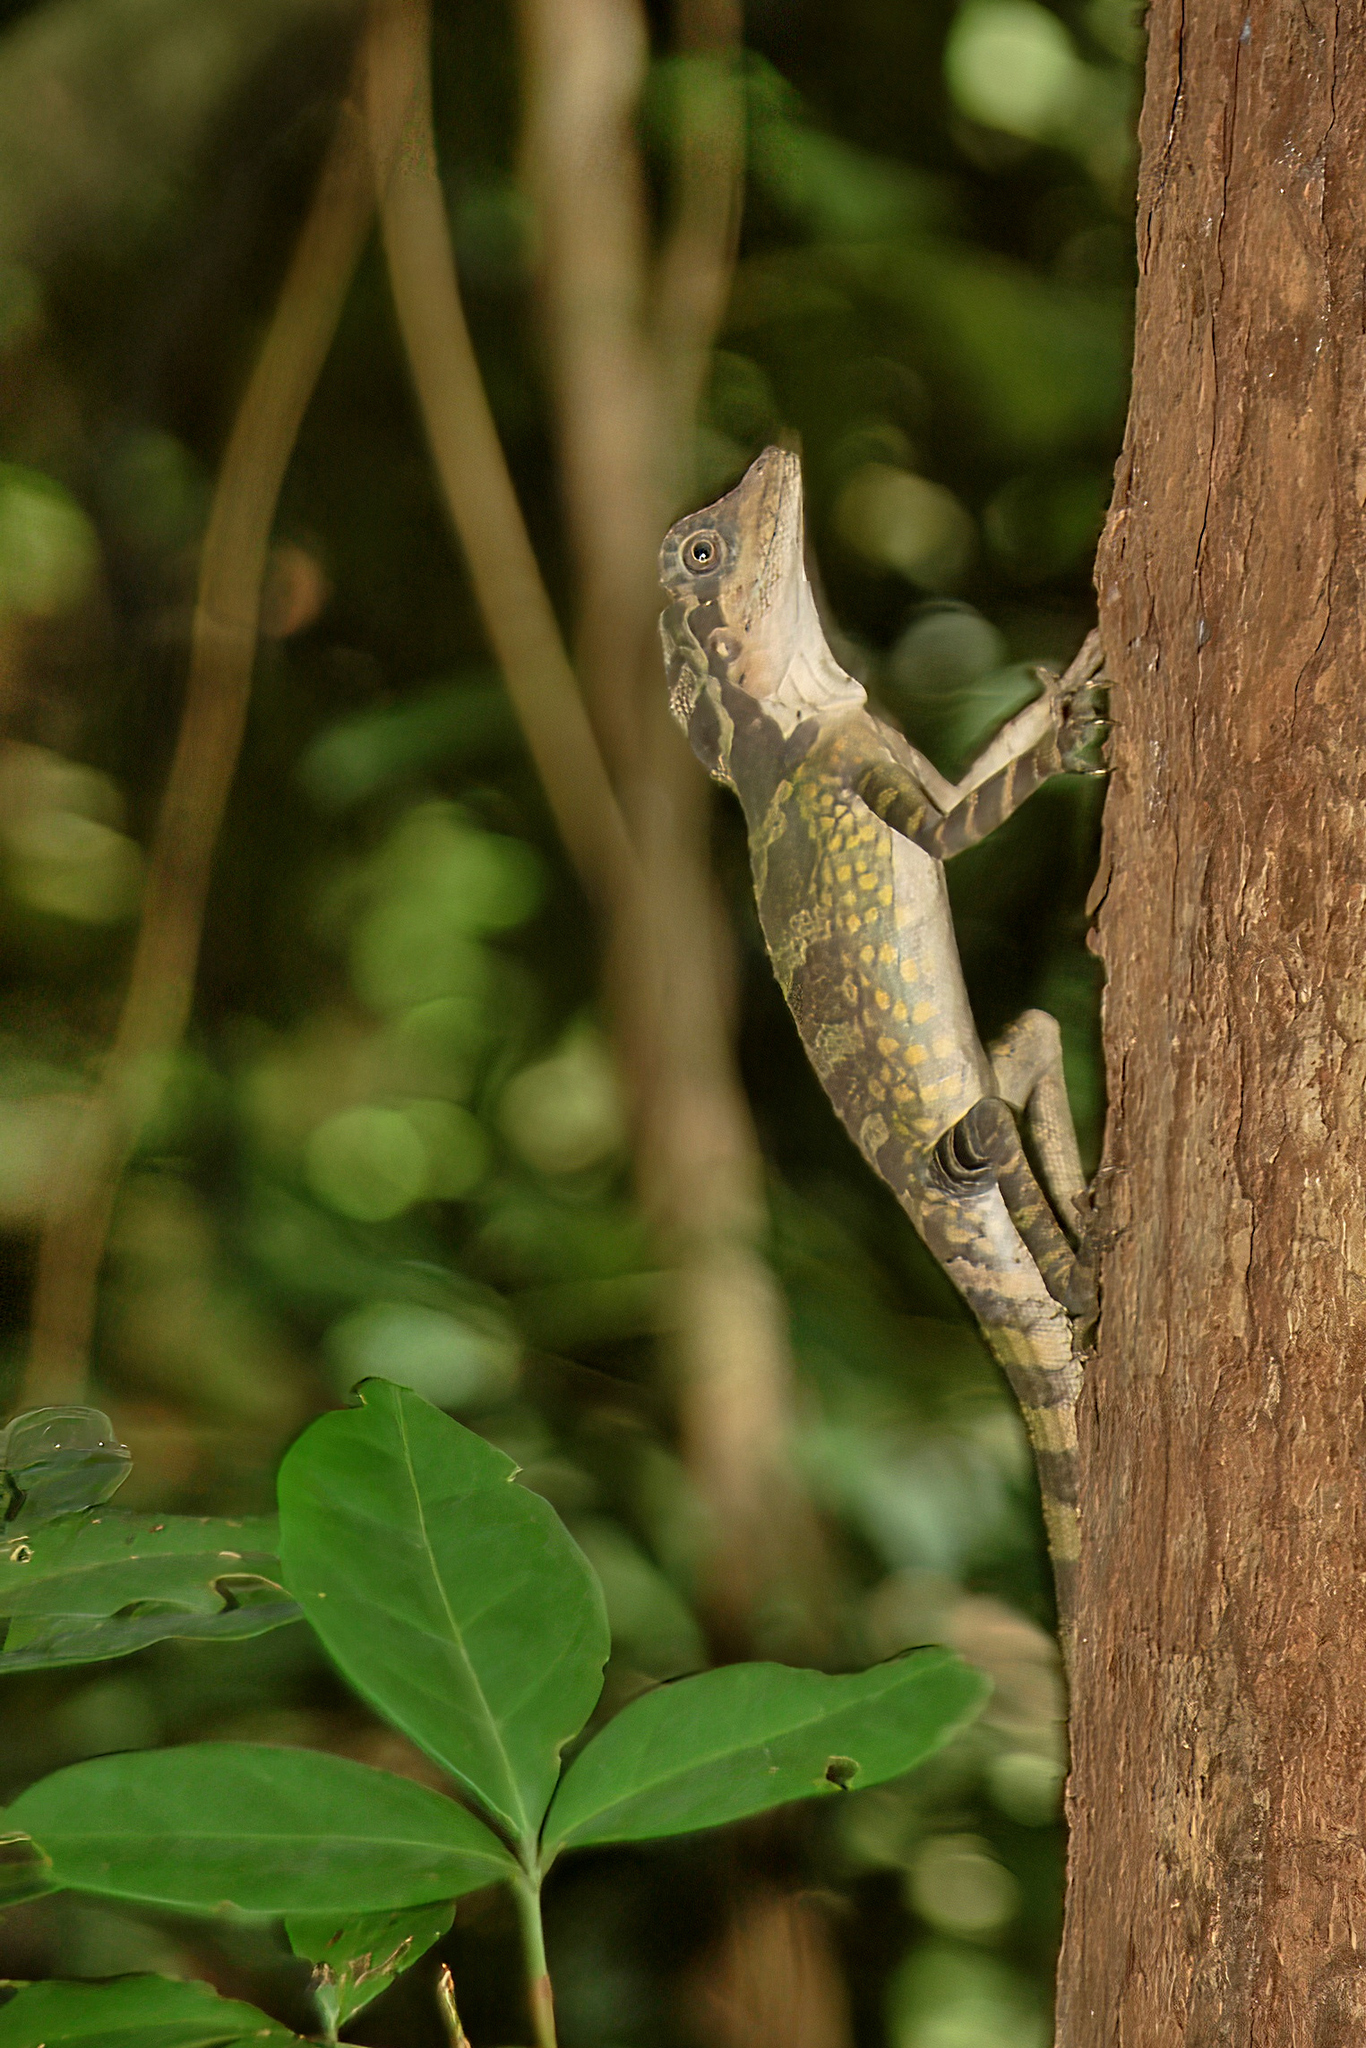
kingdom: Animalia
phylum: Chordata
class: Squamata
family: Agamidae
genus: Gonocephalus
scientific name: Gonocephalus grandis
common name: Giant forest dragon
